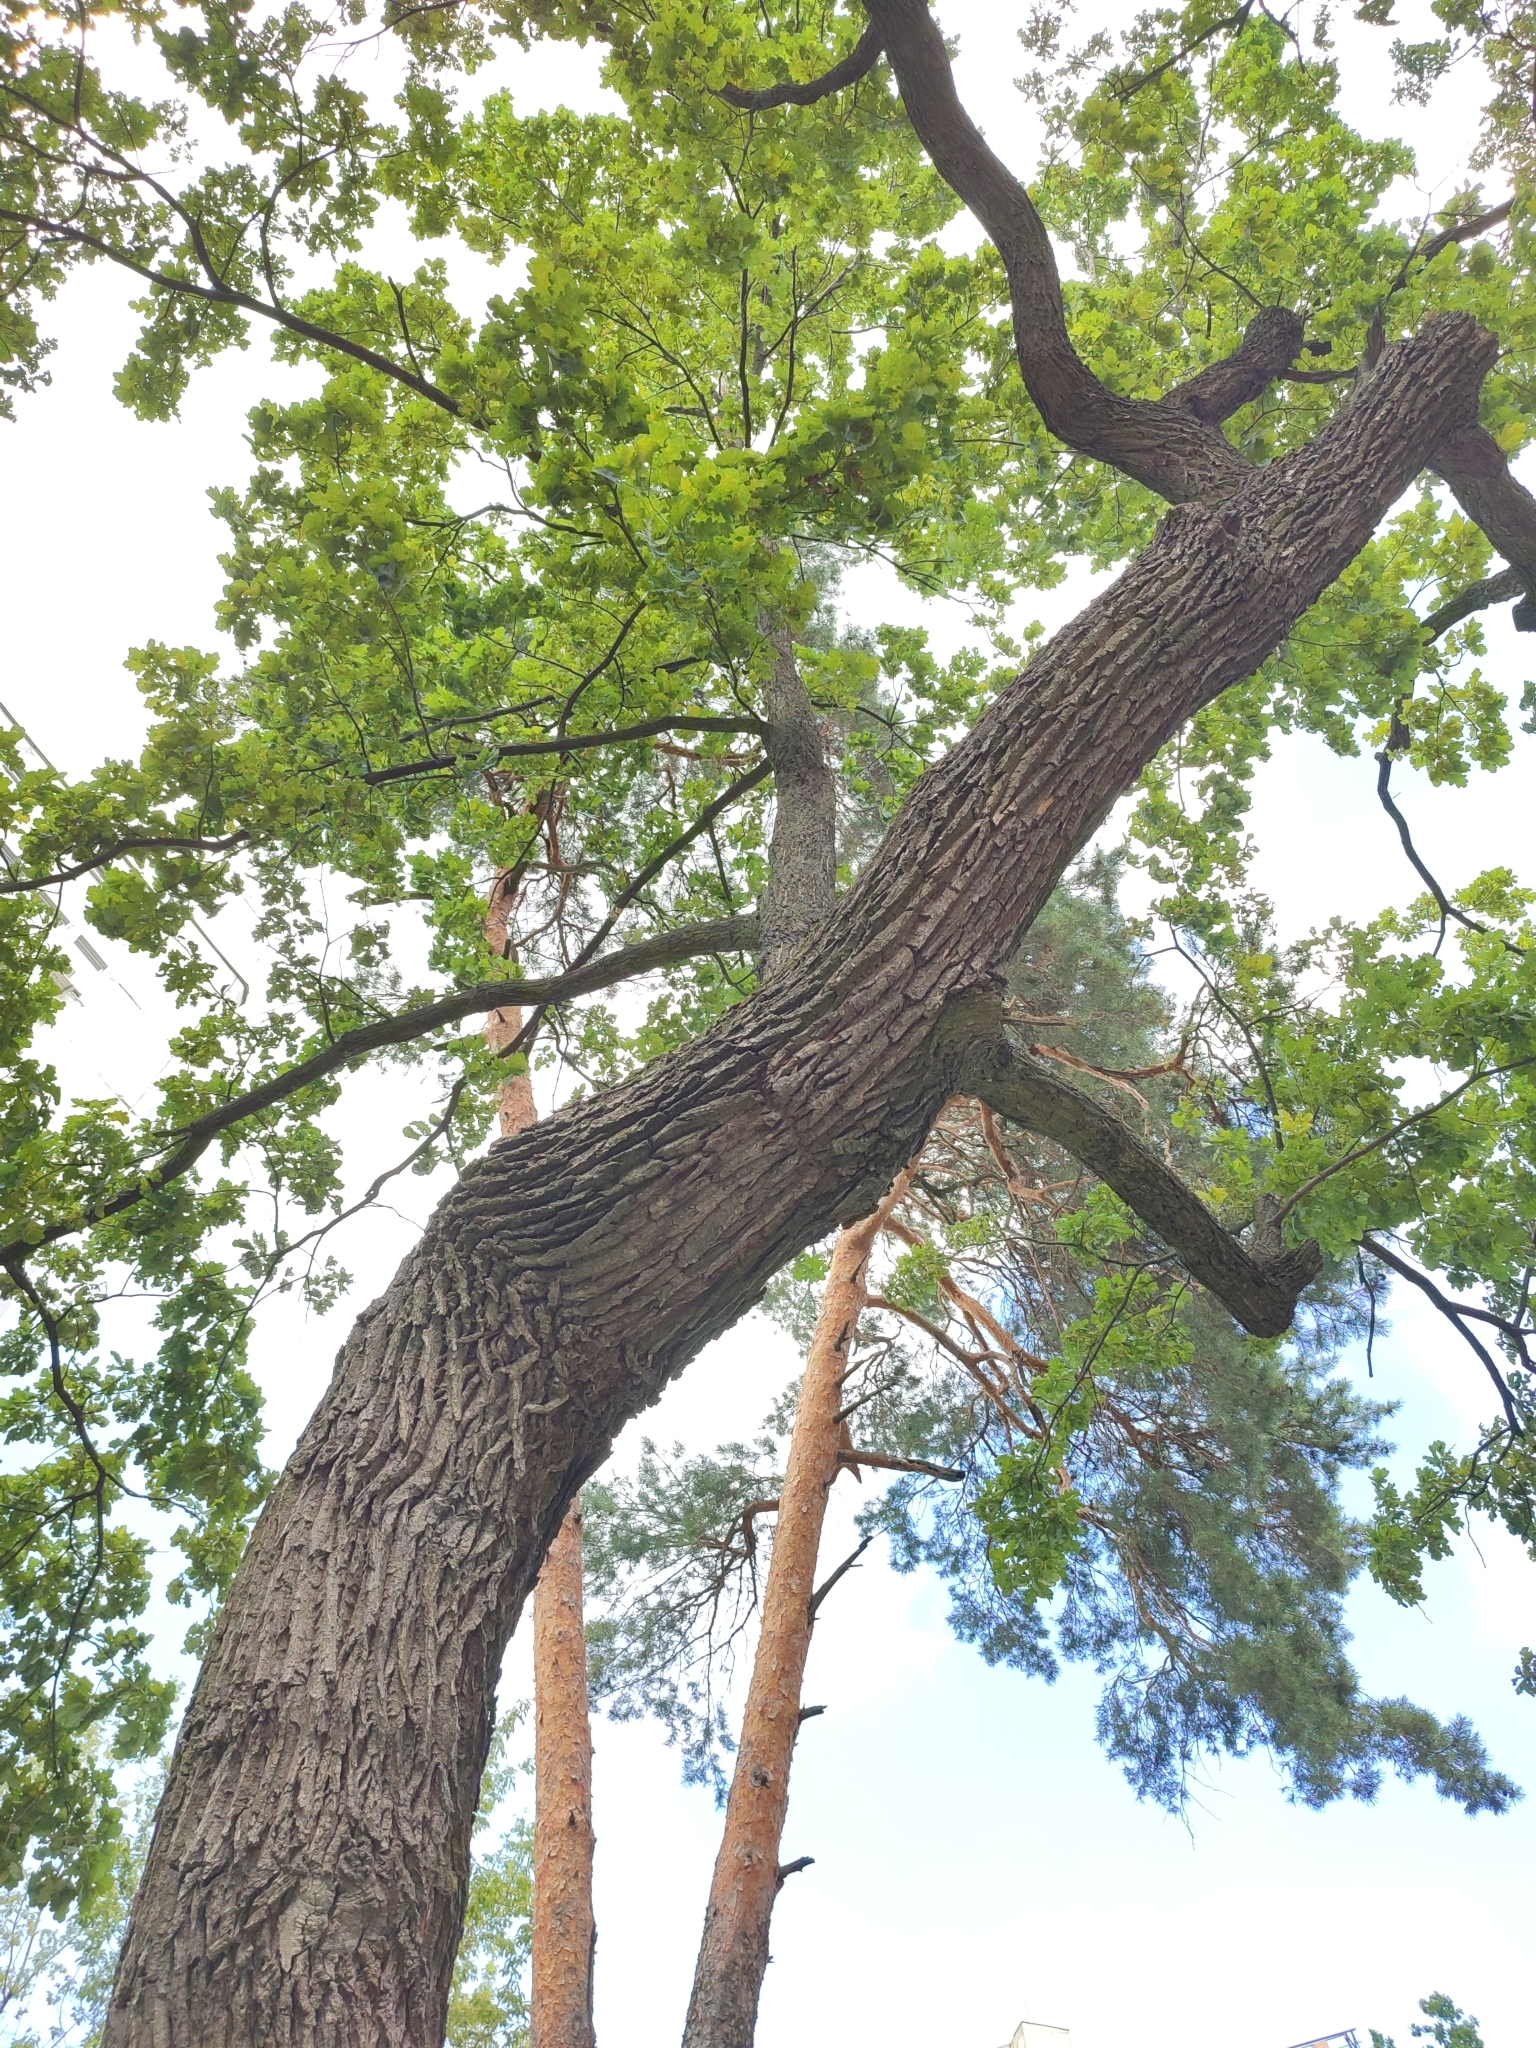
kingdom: Plantae
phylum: Tracheophyta
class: Magnoliopsida
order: Fagales
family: Fagaceae
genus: Quercus
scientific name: Quercus robur
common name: Pedunculate oak
